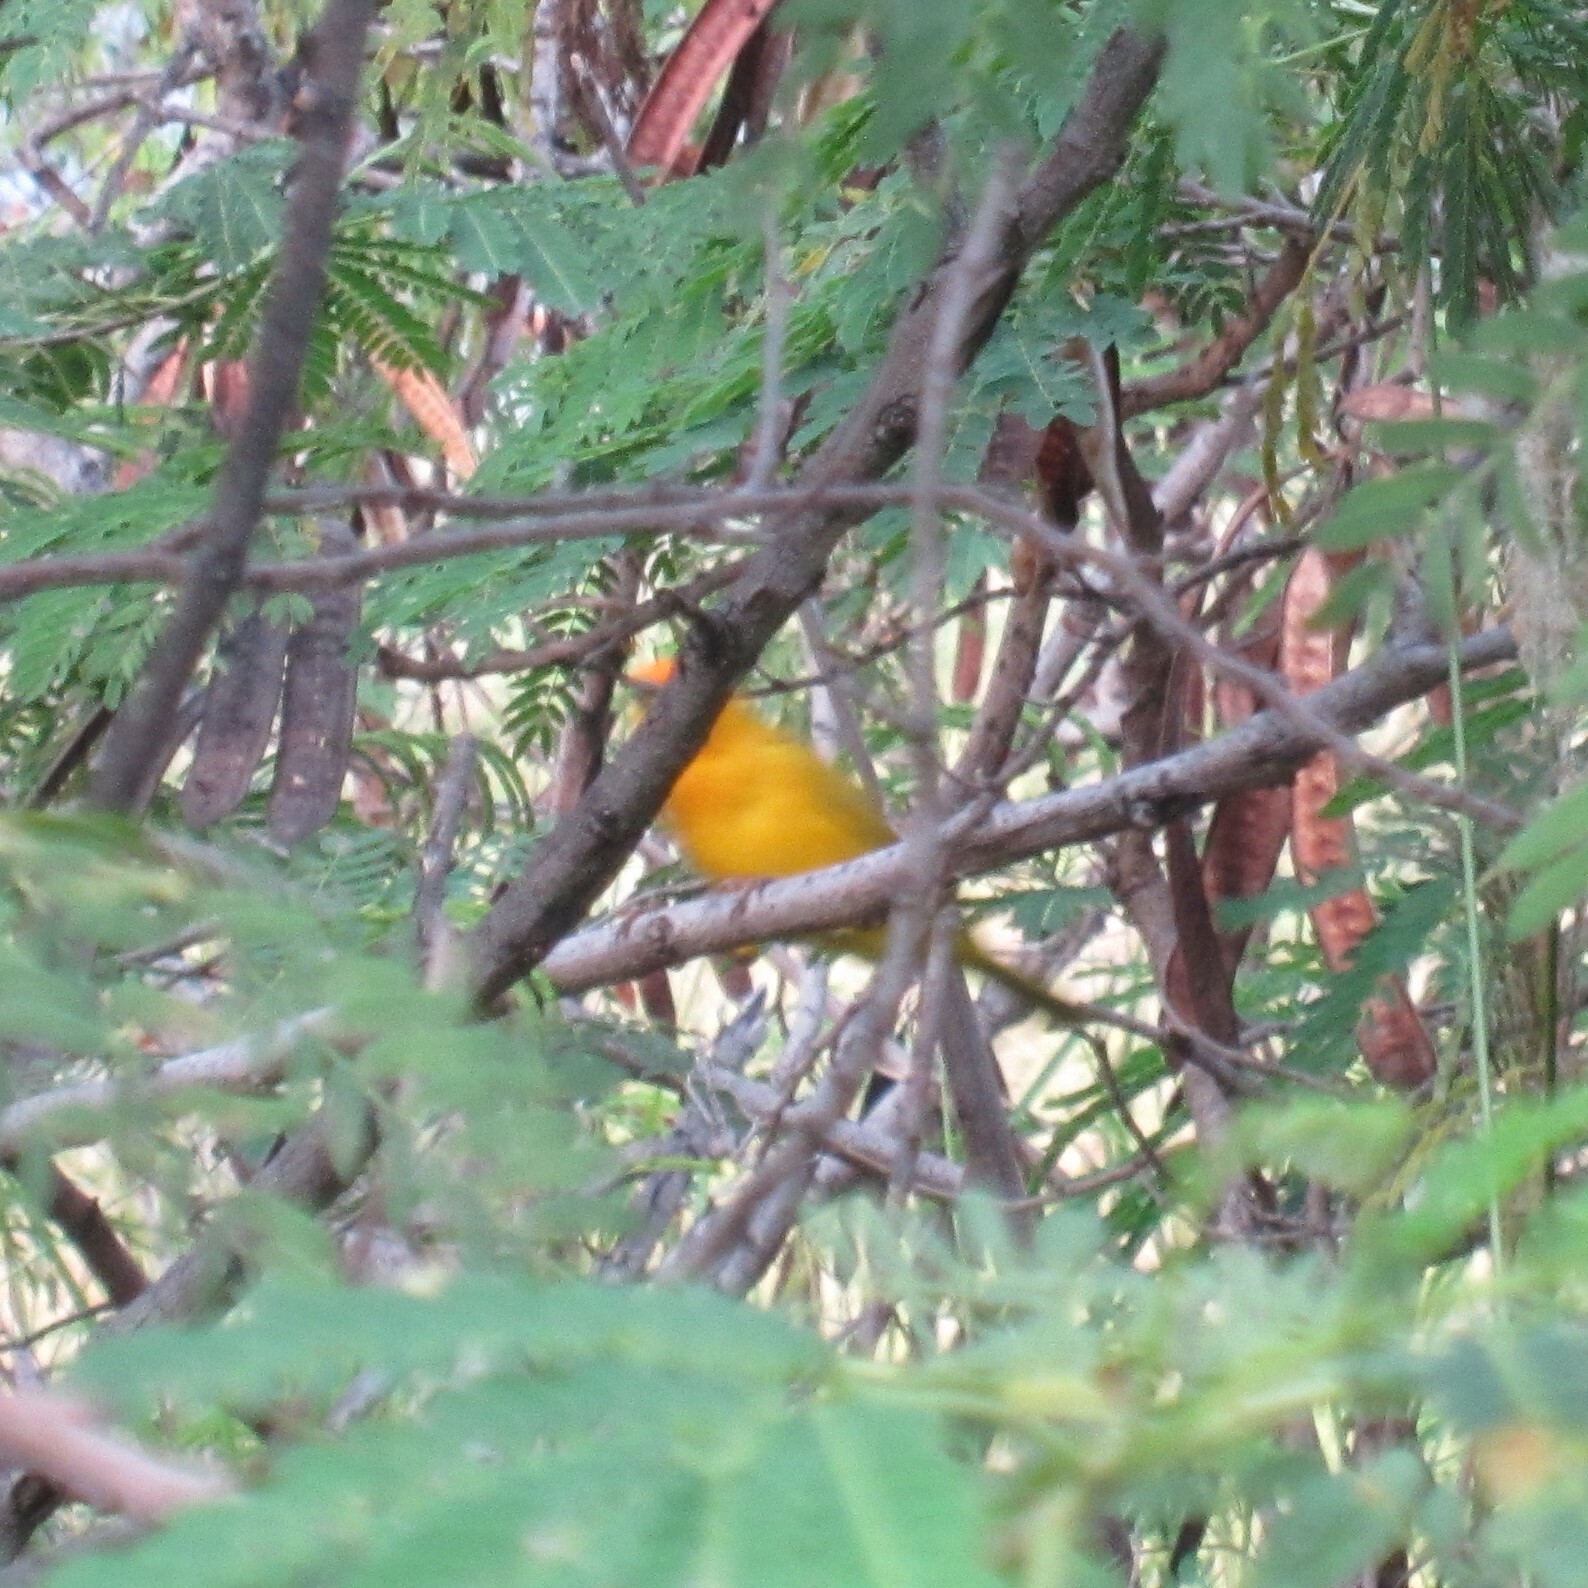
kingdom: Animalia
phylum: Chordata
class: Aves
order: Passeriformes
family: Thraupidae
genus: Sicalis
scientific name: Sicalis flaveola
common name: Saffron finch
